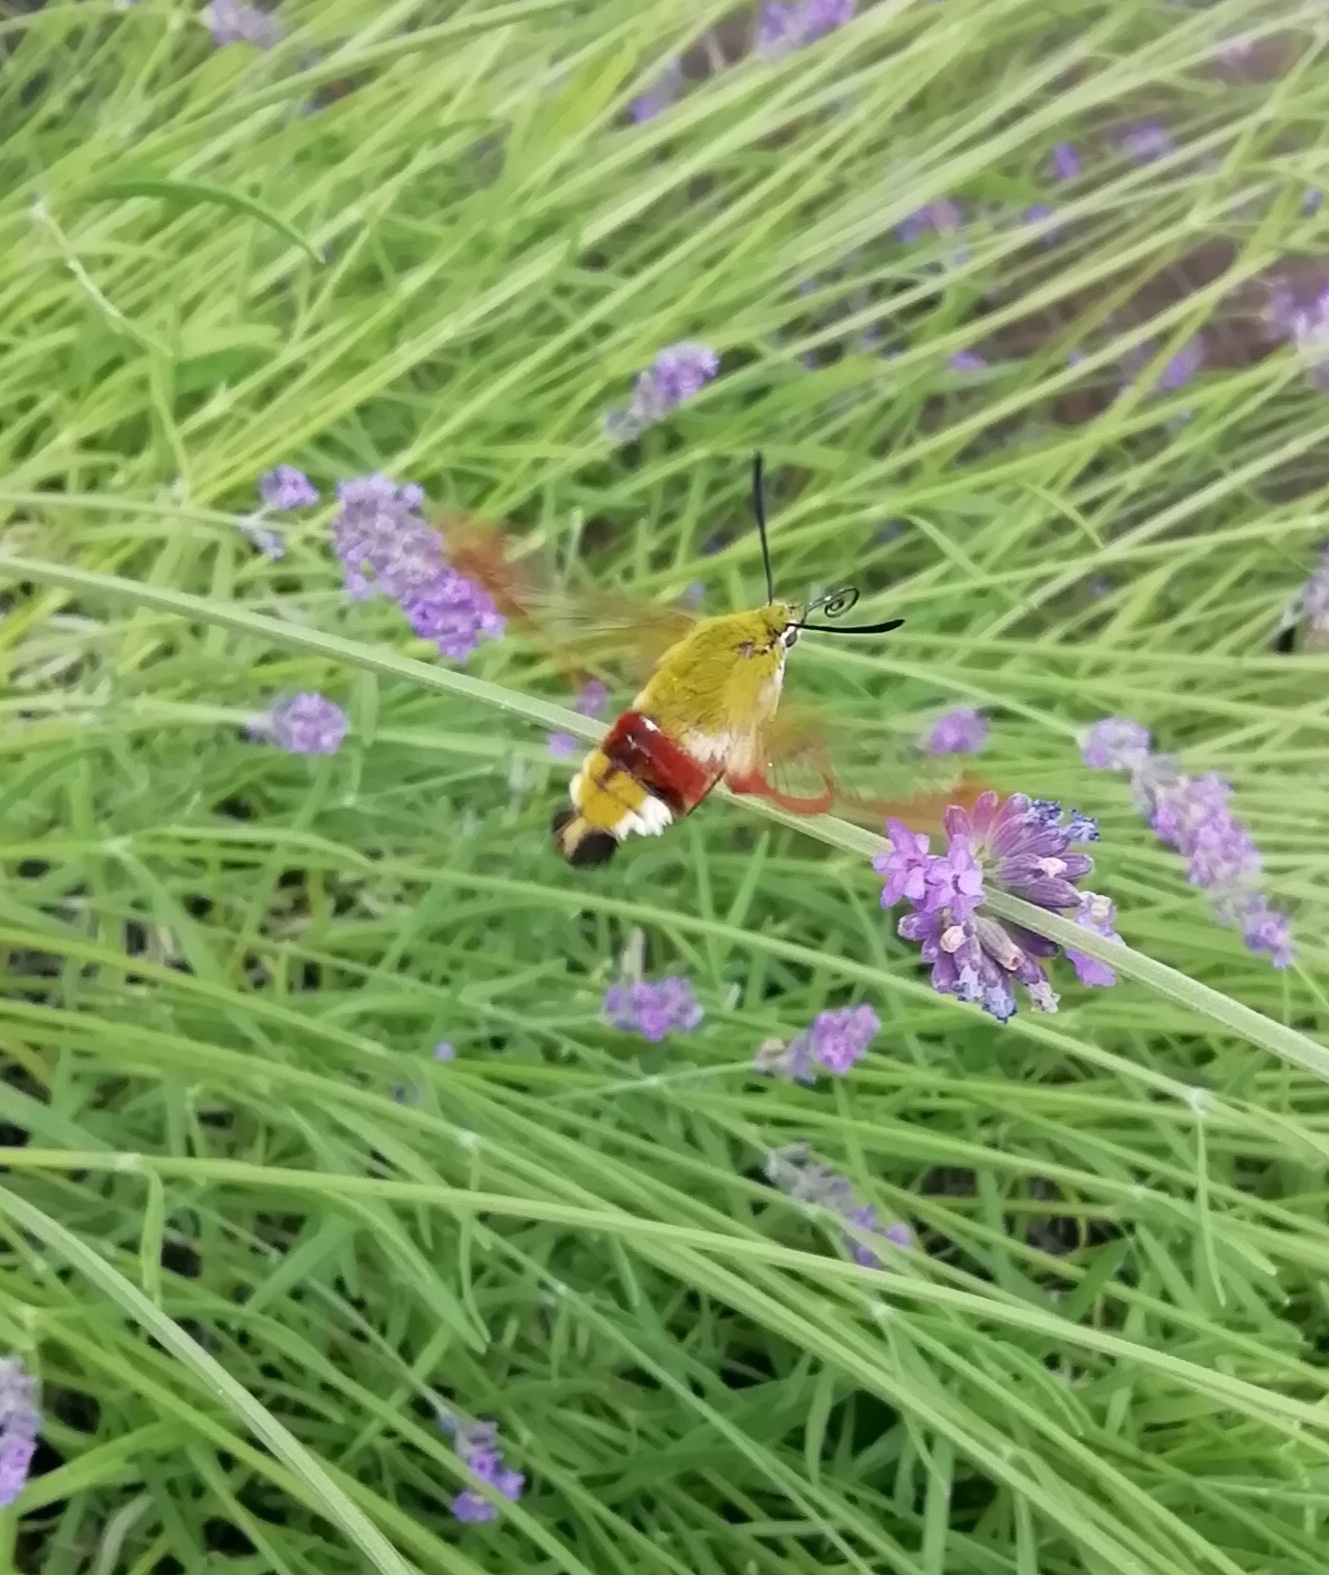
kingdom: Animalia
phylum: Arthropoda
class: Insecta
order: Lepidoptera
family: Sphingidae
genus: Hemaris
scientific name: Hemaris fuciformis
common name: Broad-bordered bee hawk-moth
